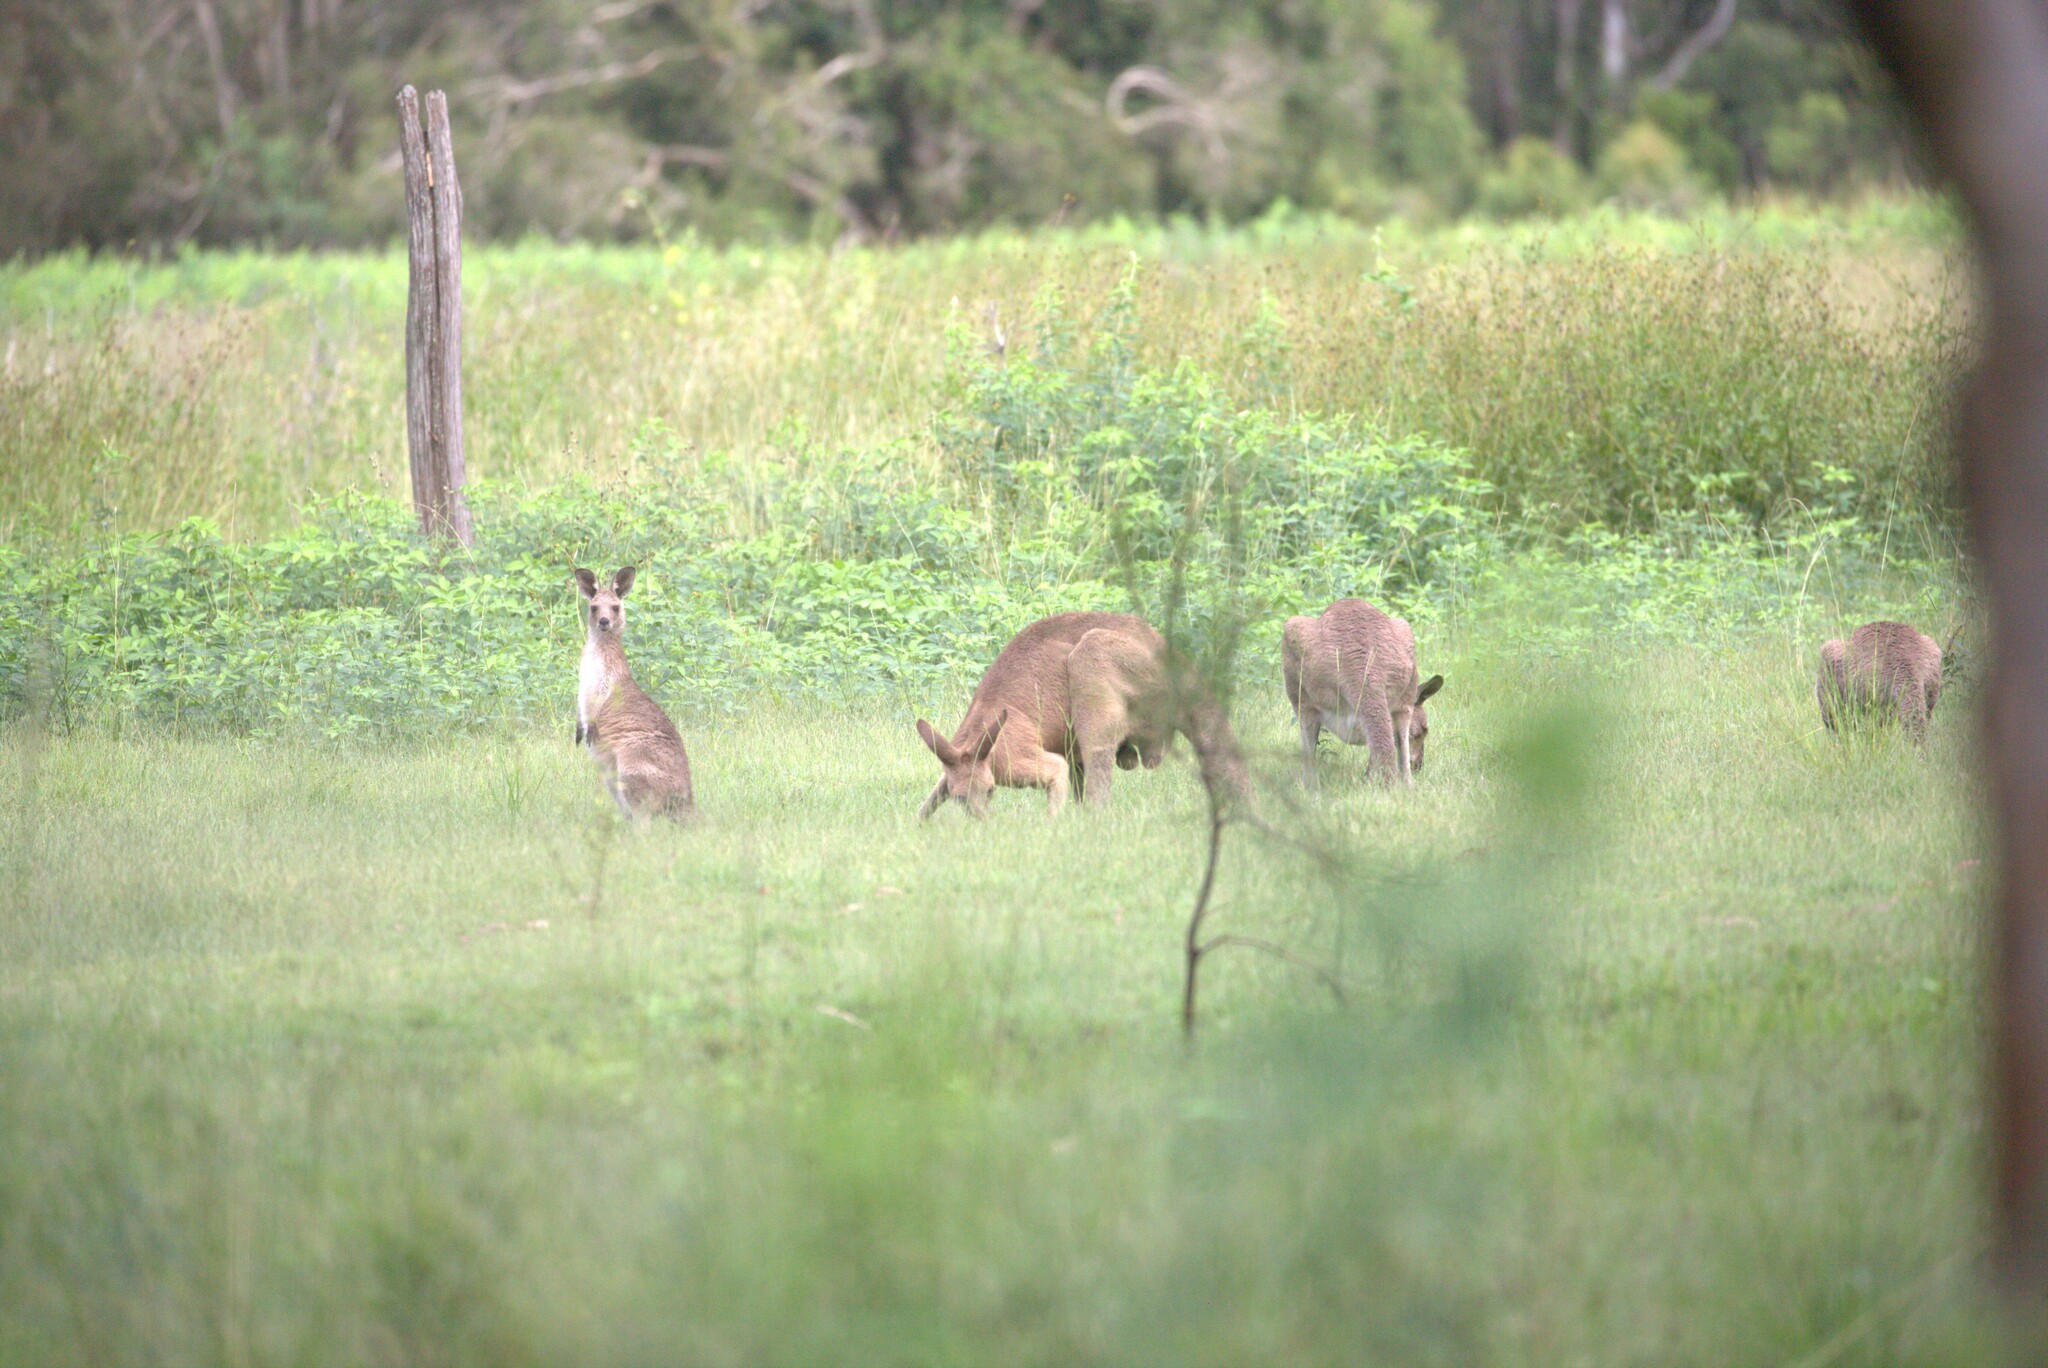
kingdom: Animalia
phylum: Chordata
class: Mammalia
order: Diprotodontia
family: Macropodidae
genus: Macropus
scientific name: Macropus giganteus
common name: Eastern grey kangaroo
